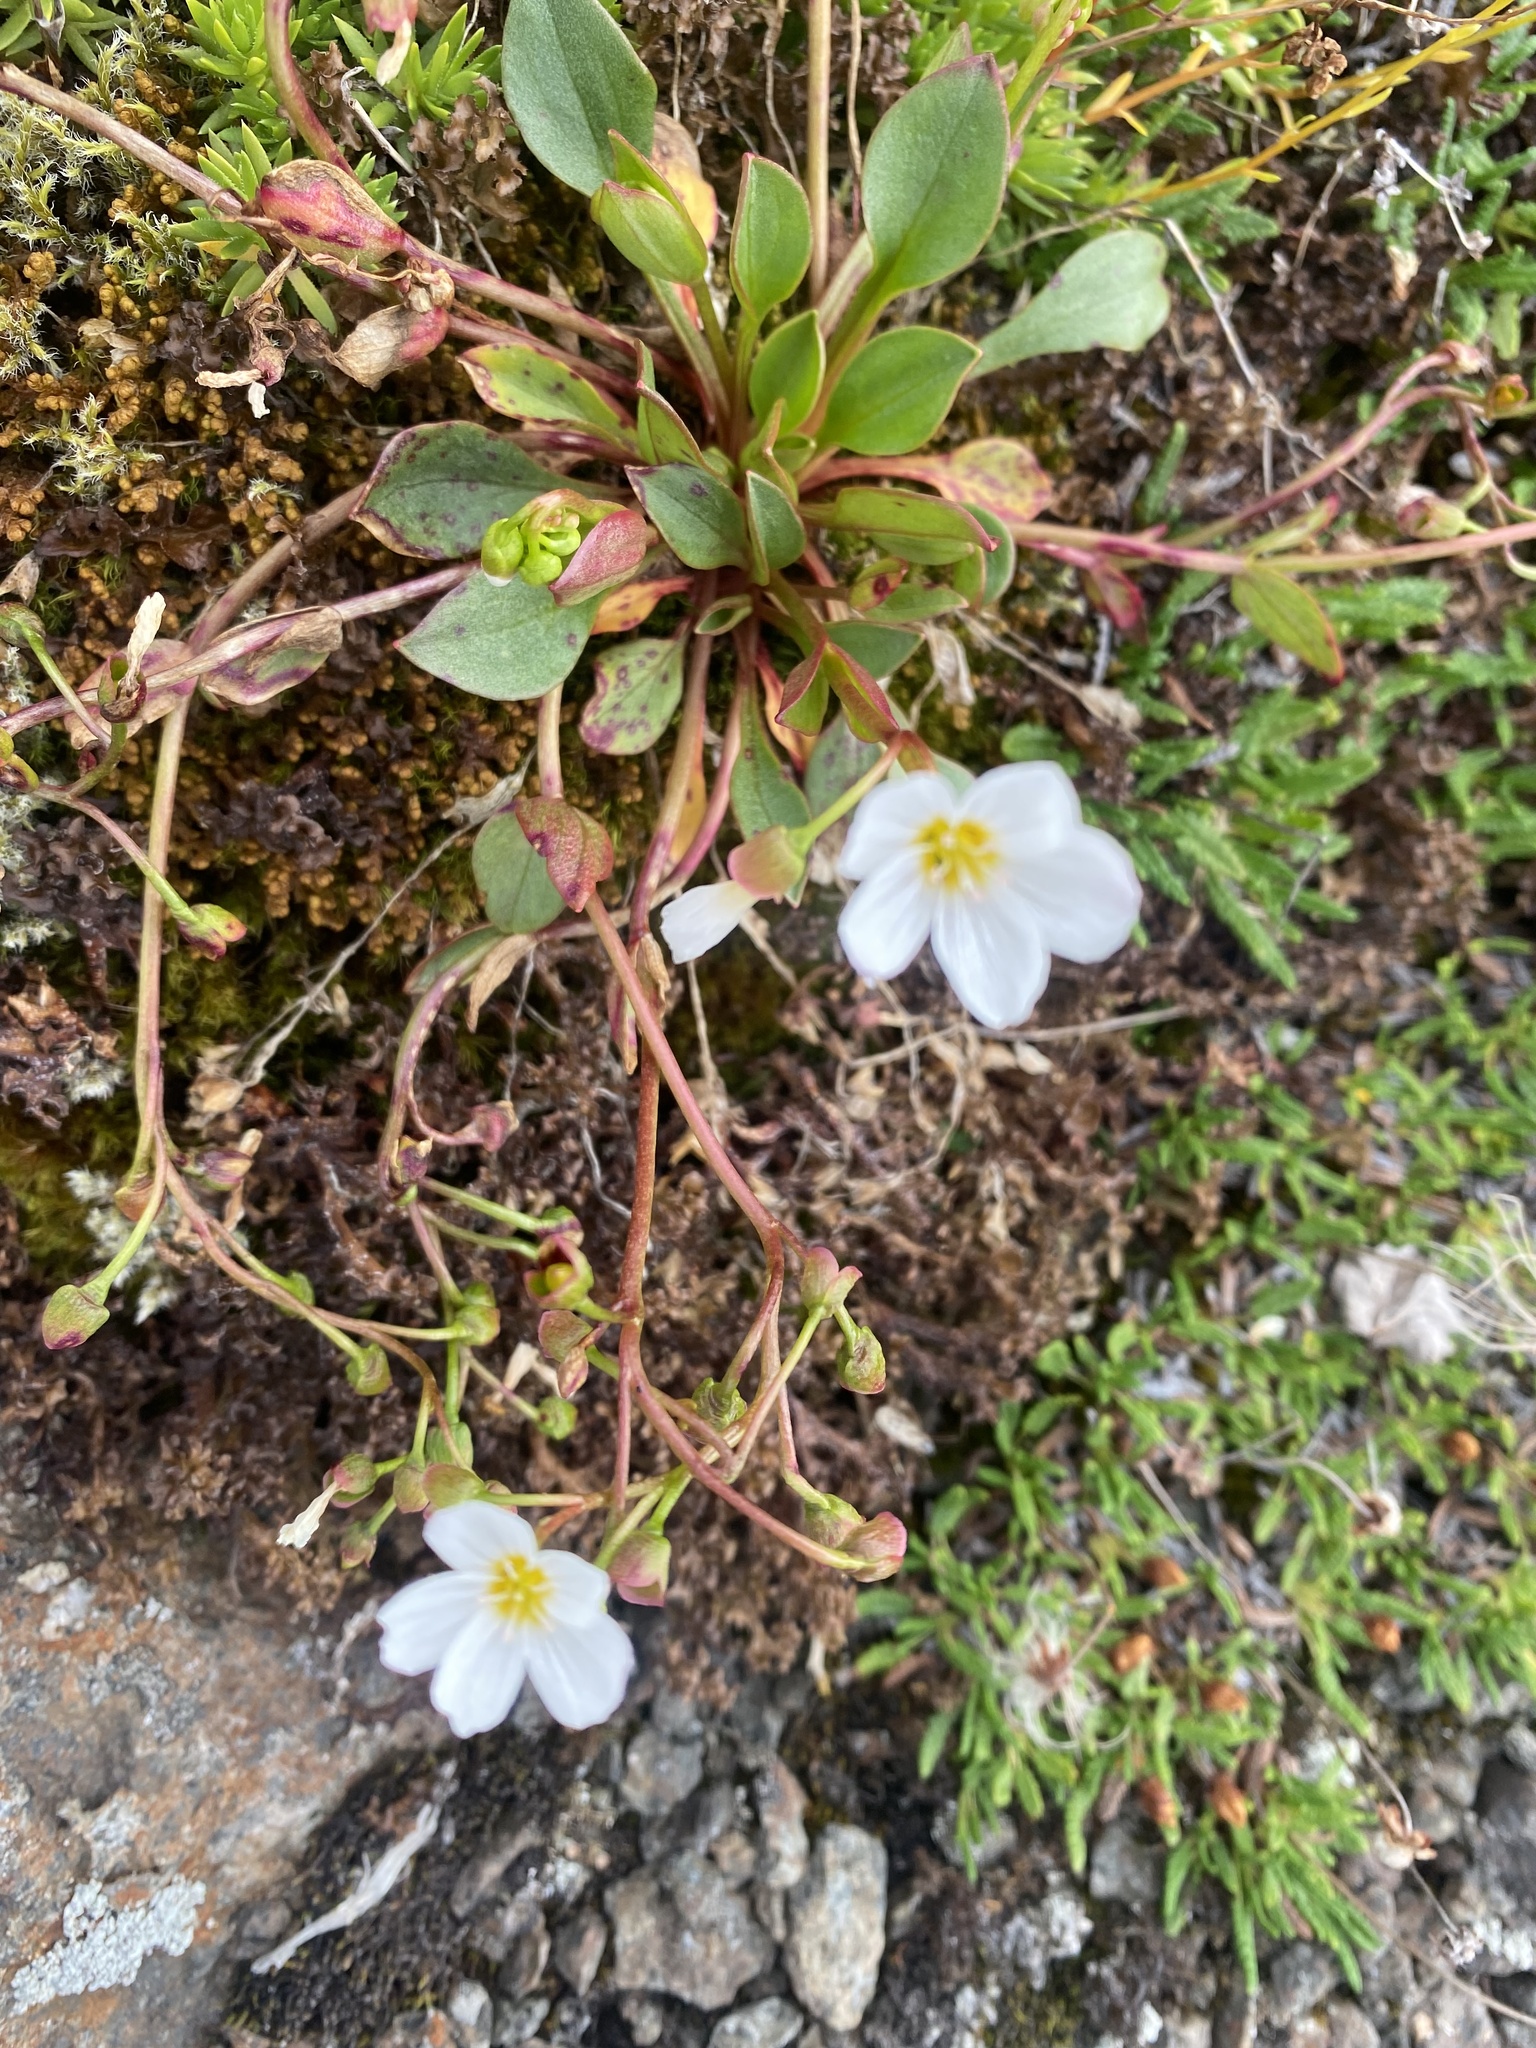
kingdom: Plantae
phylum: Tracheophyta
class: Magnoliopsida
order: Caryophyllales
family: Montiaceae
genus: Claytonia
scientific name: Claytonia joanneana
